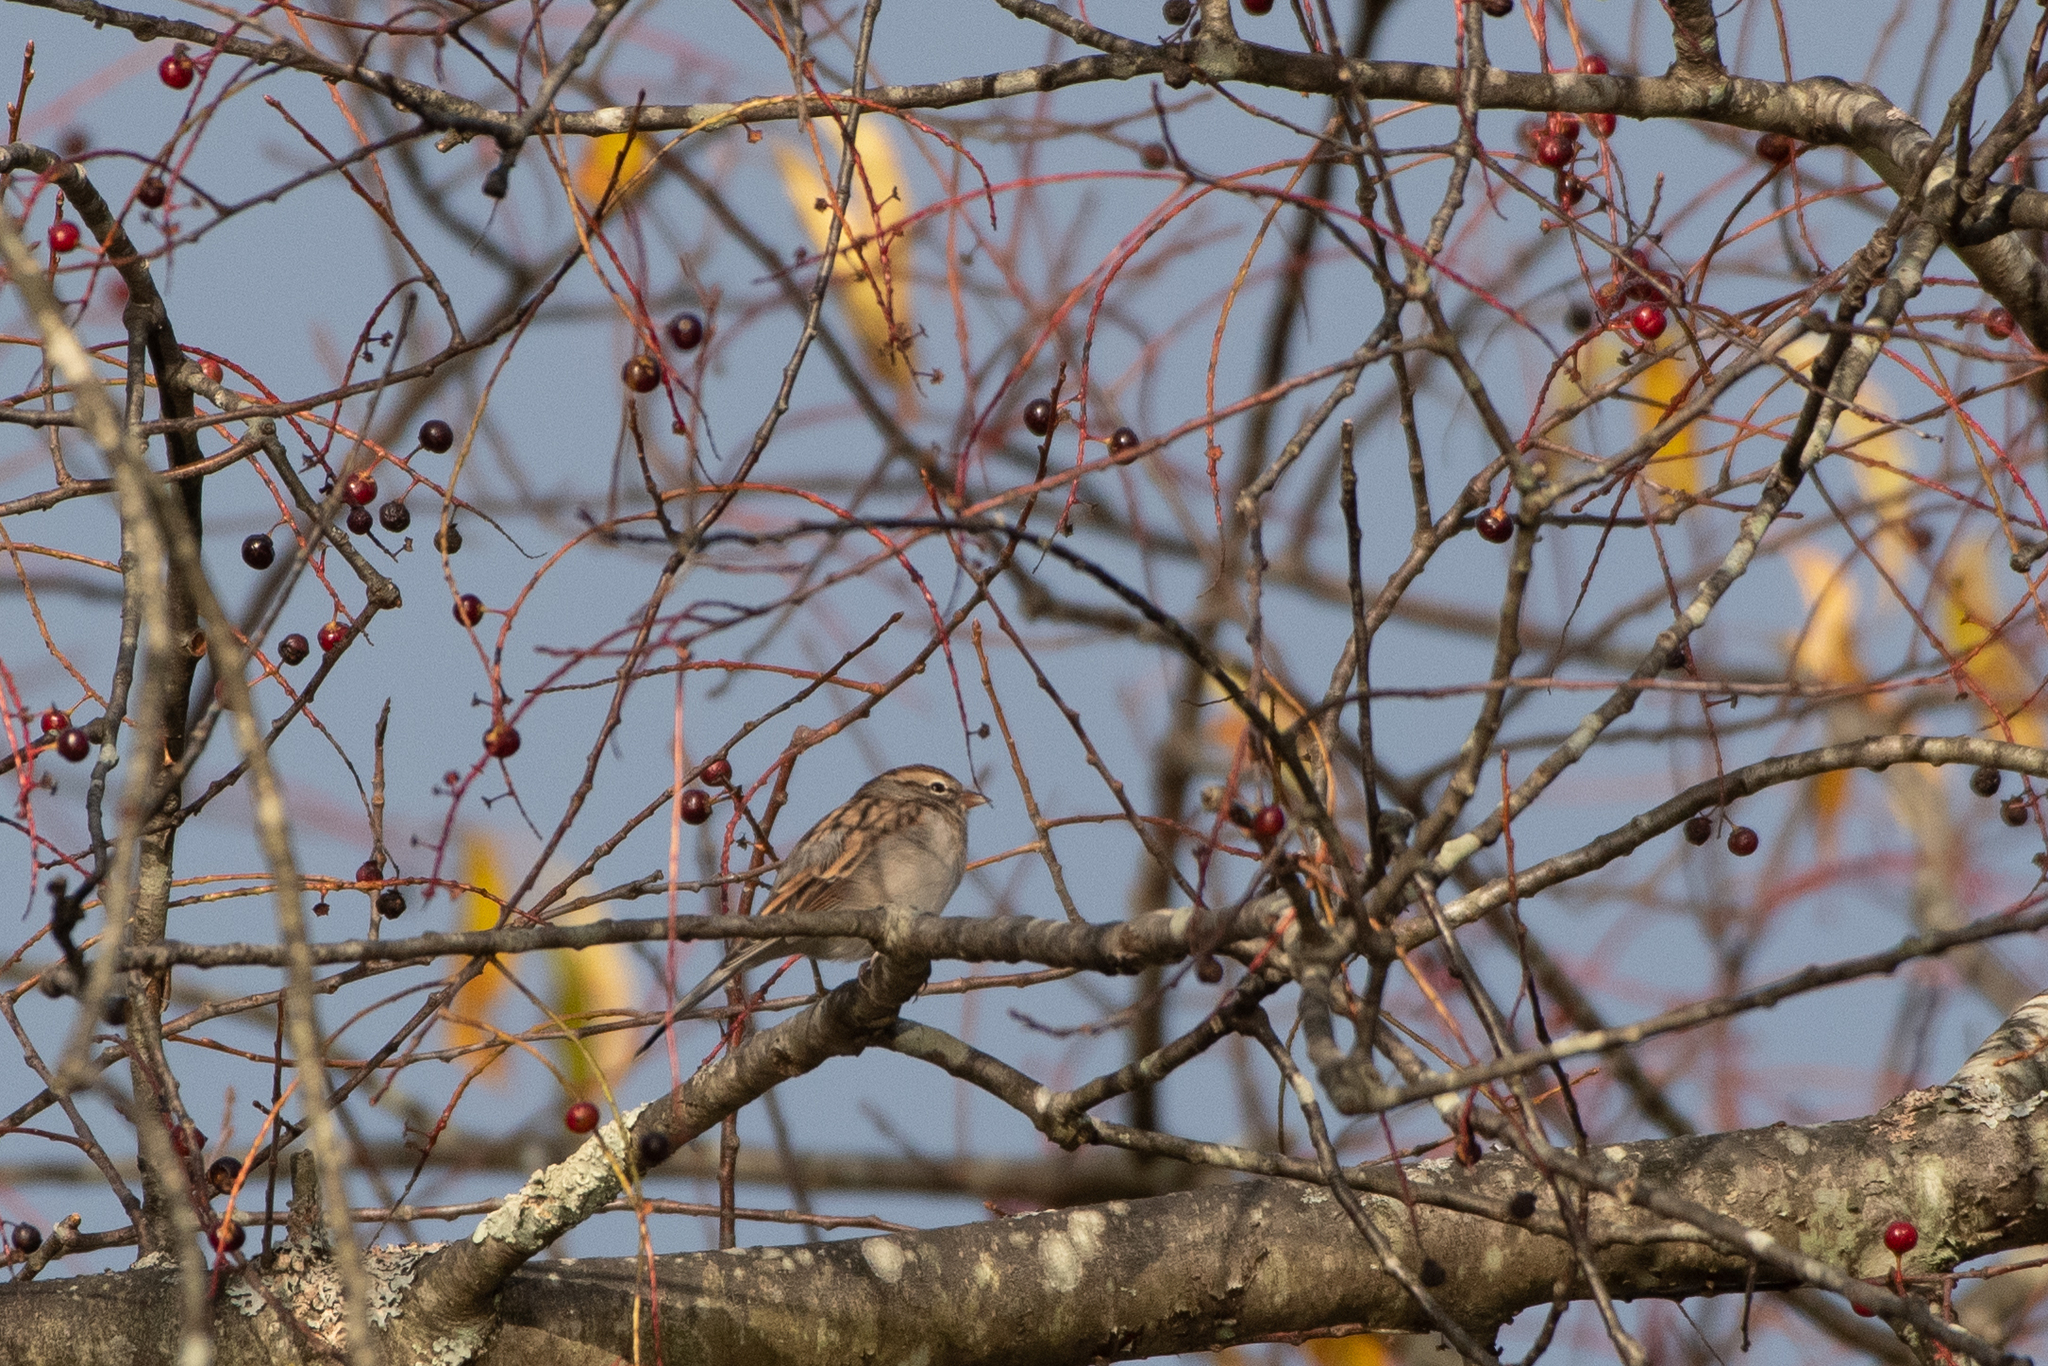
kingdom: Animalia
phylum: Chordata
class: Aves
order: Passeriformes
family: Passerellidae
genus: Spizella
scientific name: Spizella passerina
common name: Chipping sparrow
